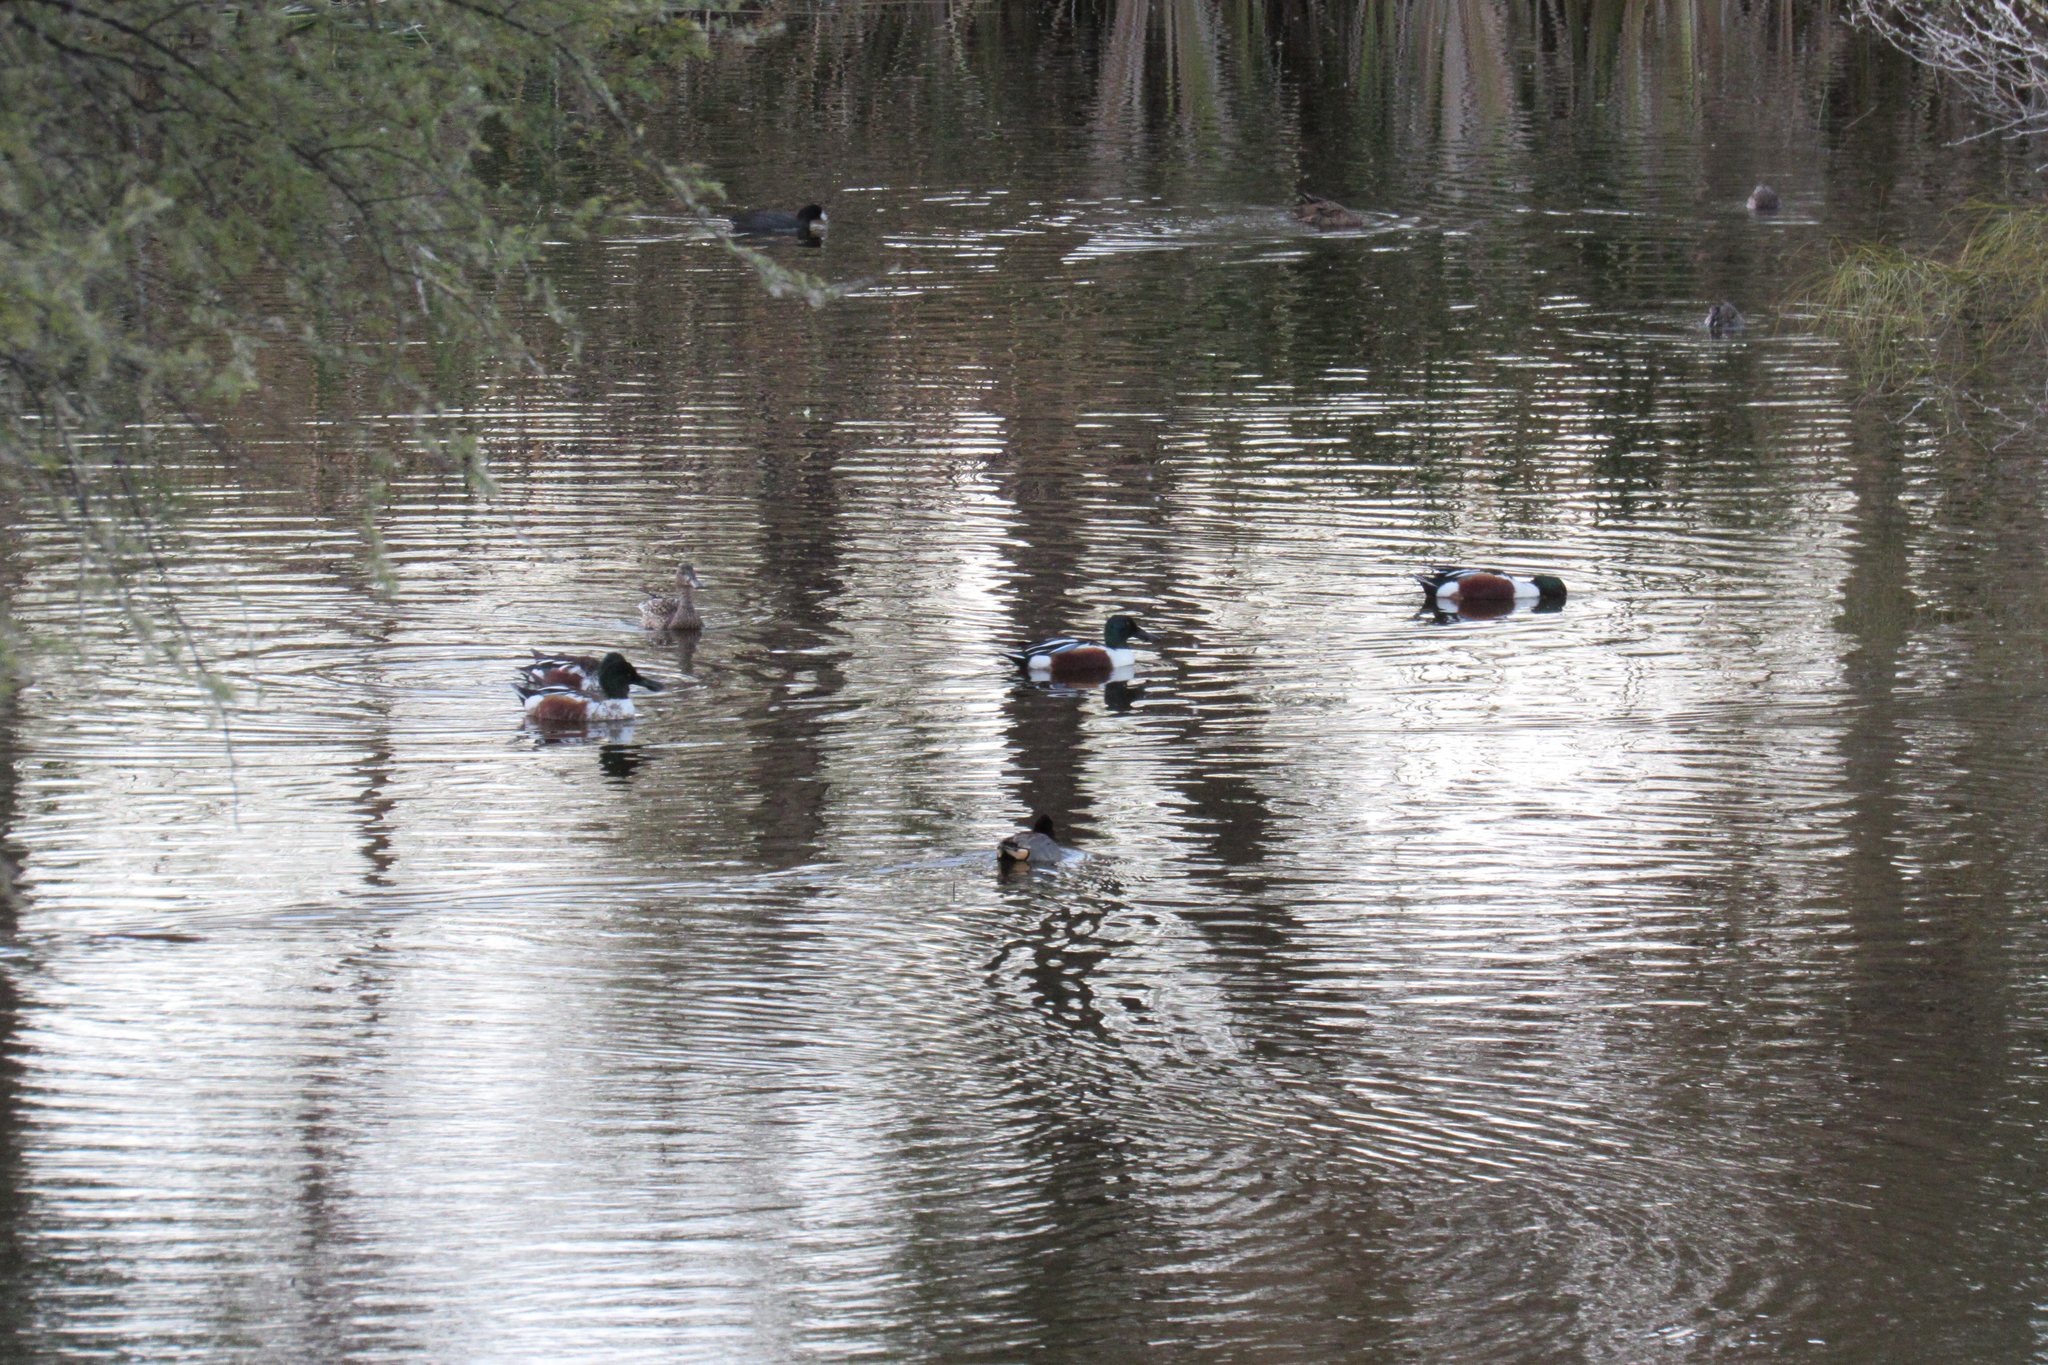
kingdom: Animalia
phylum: Chordata
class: Aves
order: Anseriformes
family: Anatidae
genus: Spatula
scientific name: Spatula clypeata
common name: Northern shoveler
